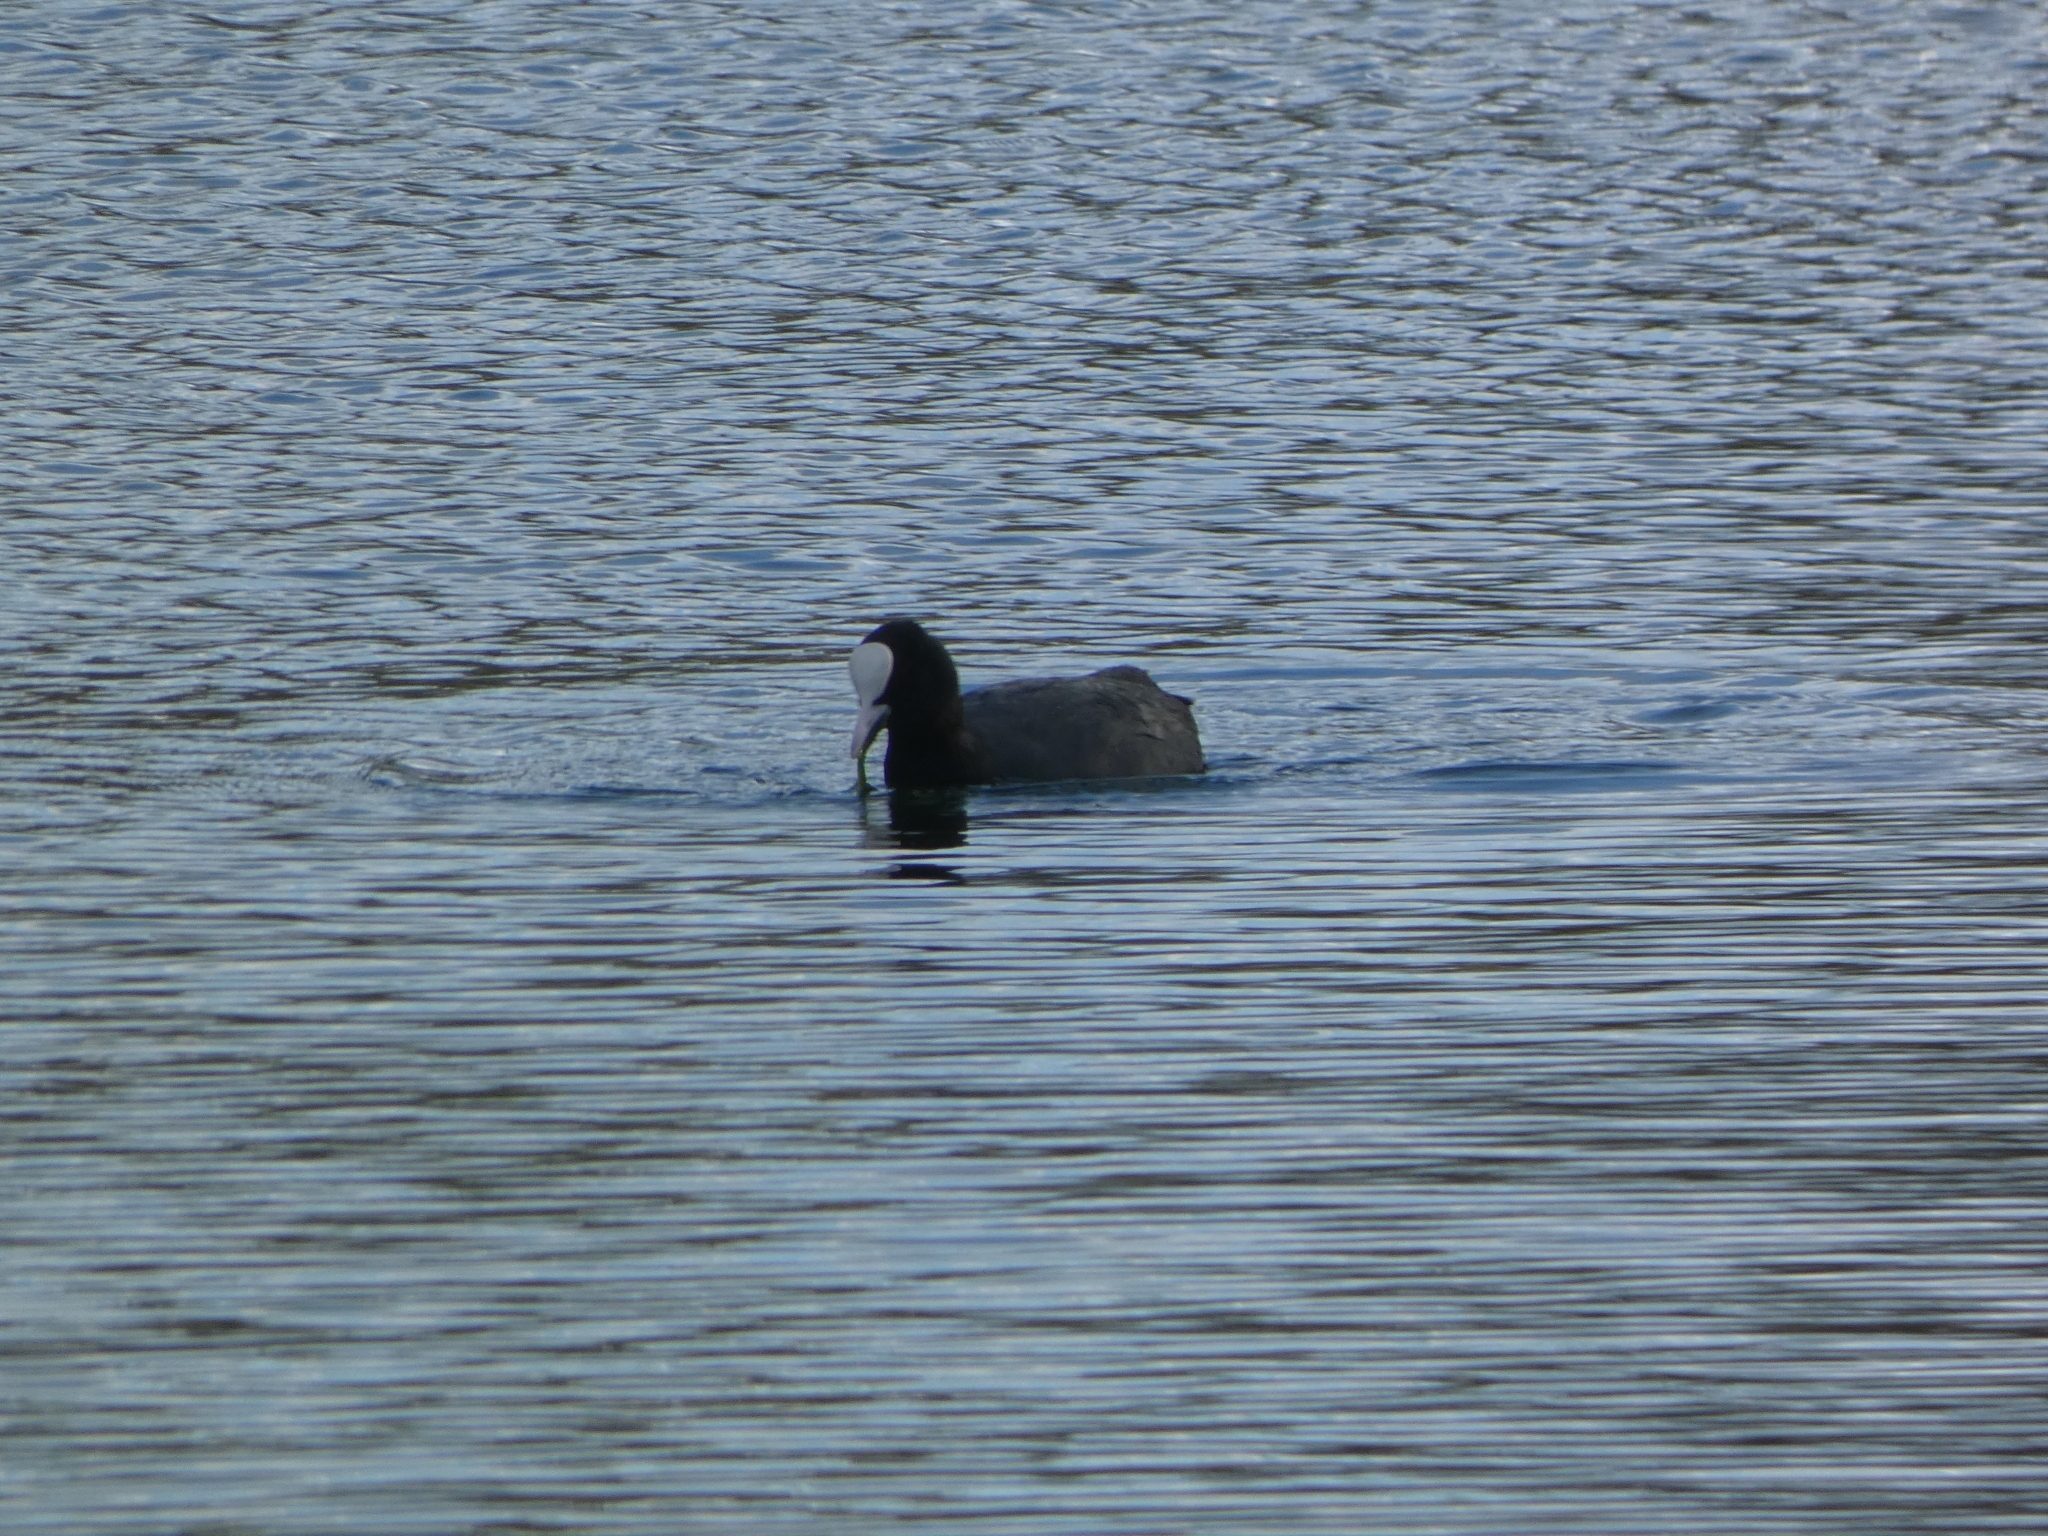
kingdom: Animalia
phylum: Chordata
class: Aves
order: Gruiformes
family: Rallidae
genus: Fulica
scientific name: Fulica atra
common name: Eurasian coot
